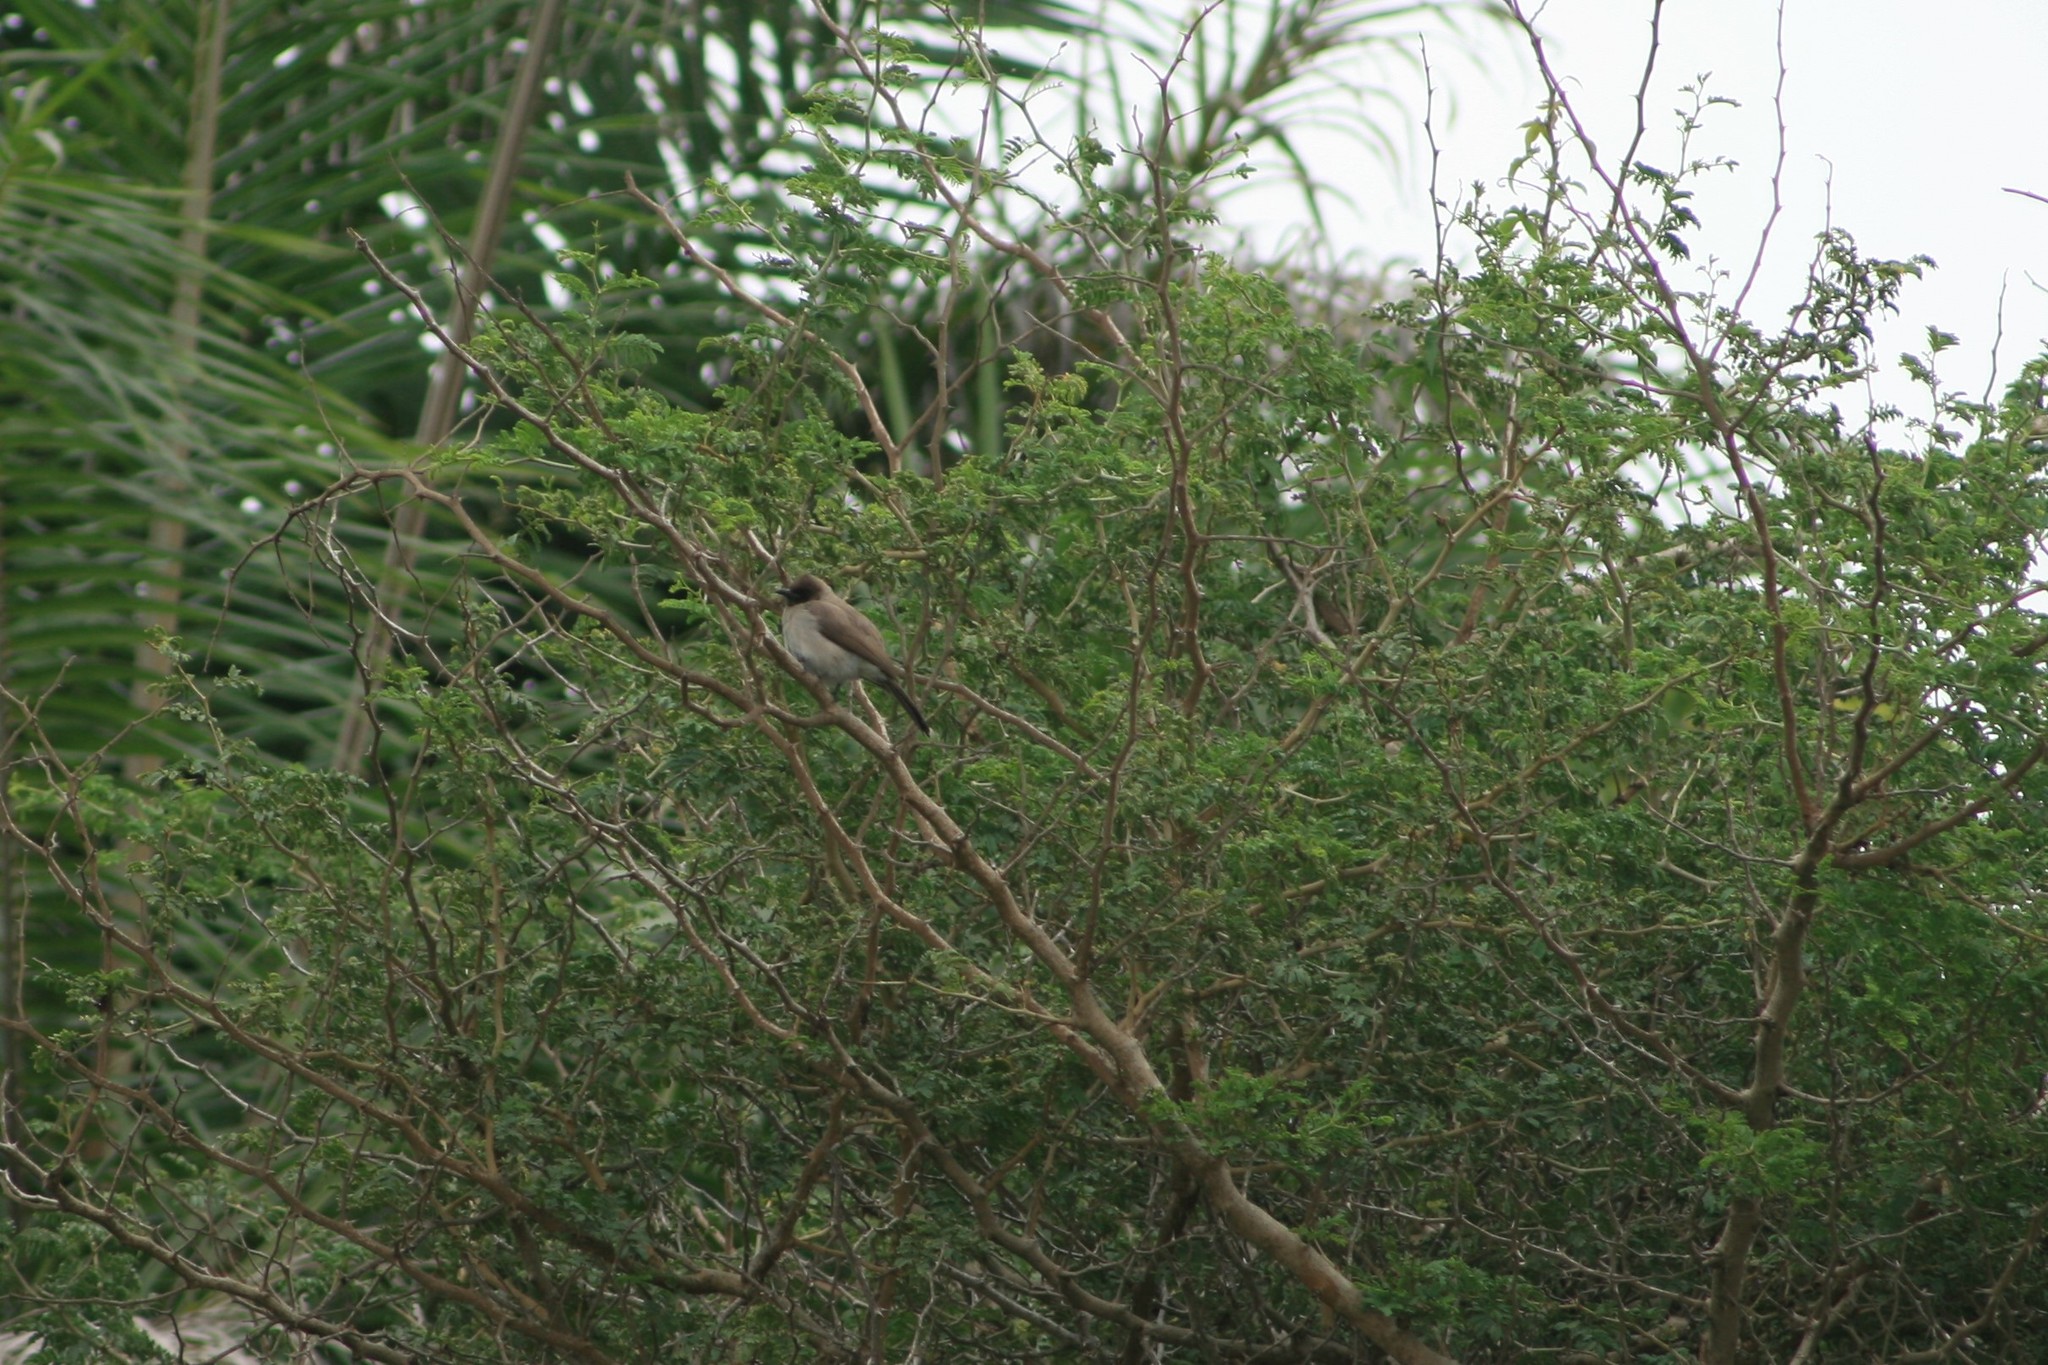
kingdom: Animalia
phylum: Chordata
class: Aves
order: Passeriformes
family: Pycnonotidae
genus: Pycnonotus
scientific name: Pycnonotus barbatus
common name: Common bulbul
